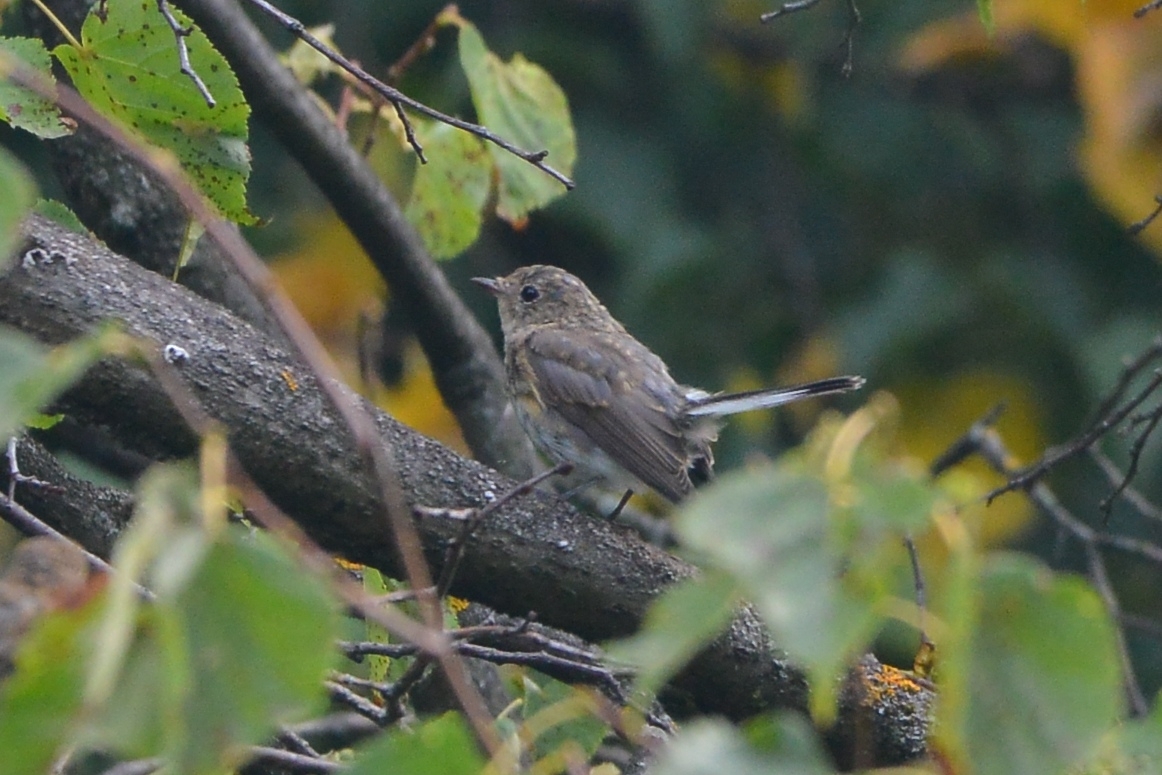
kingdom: Animalia
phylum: Chordata
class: Aves
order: Passeriformes
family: Muscicapidae
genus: Ficedula
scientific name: Ficedula parva
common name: Red-breasted flycatcher
